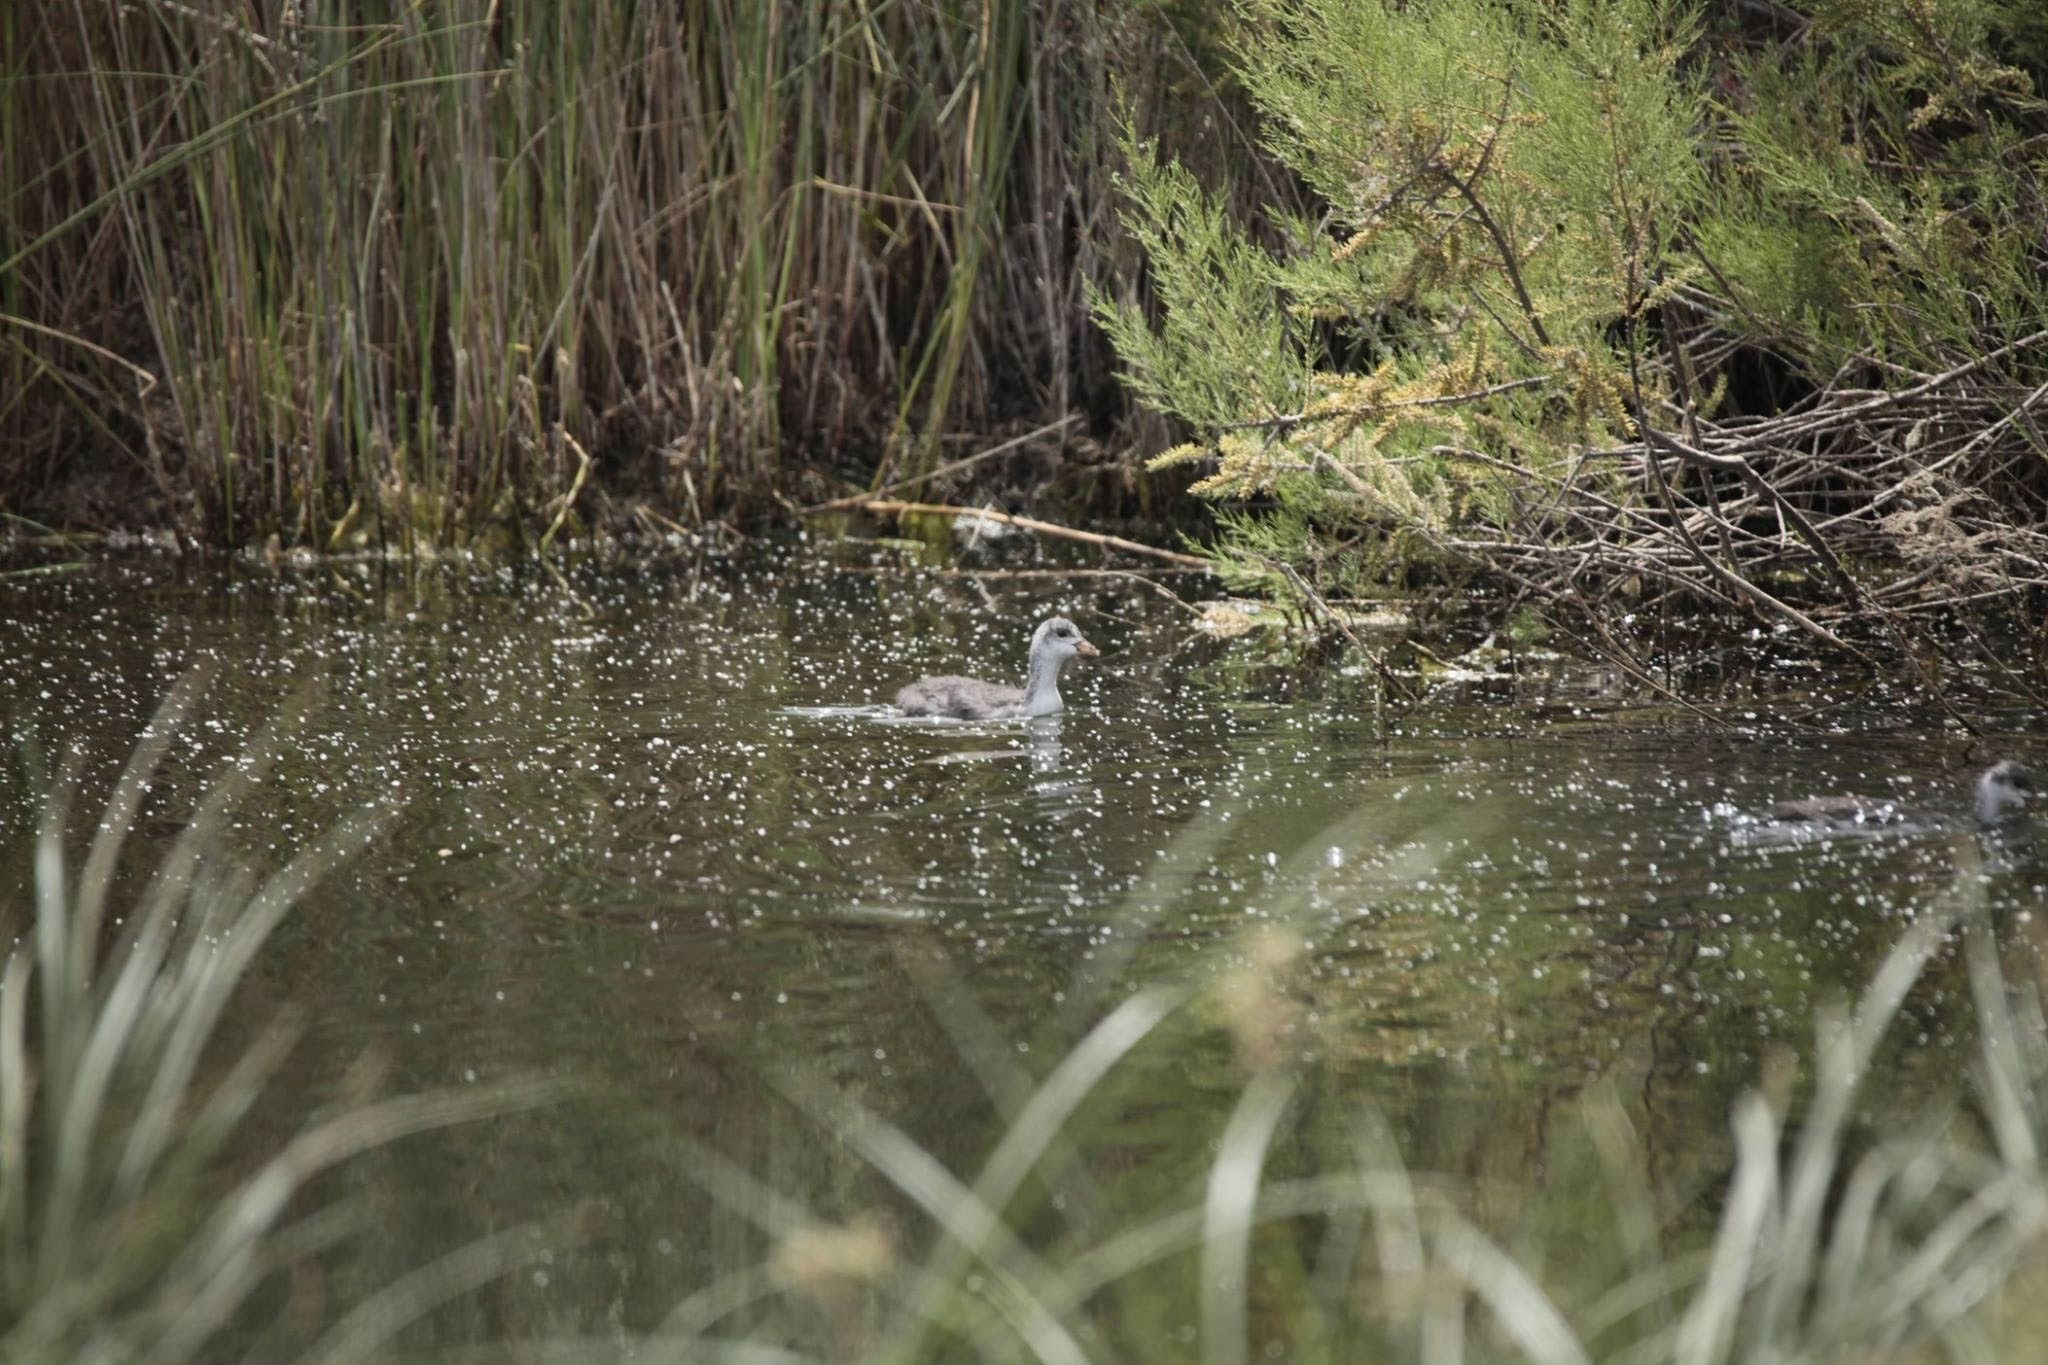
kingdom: Animalia
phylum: Chordata
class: Aves
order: Gruiformes
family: Rallidae
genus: Fulica
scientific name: Fulica atra
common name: Eurasian coot
